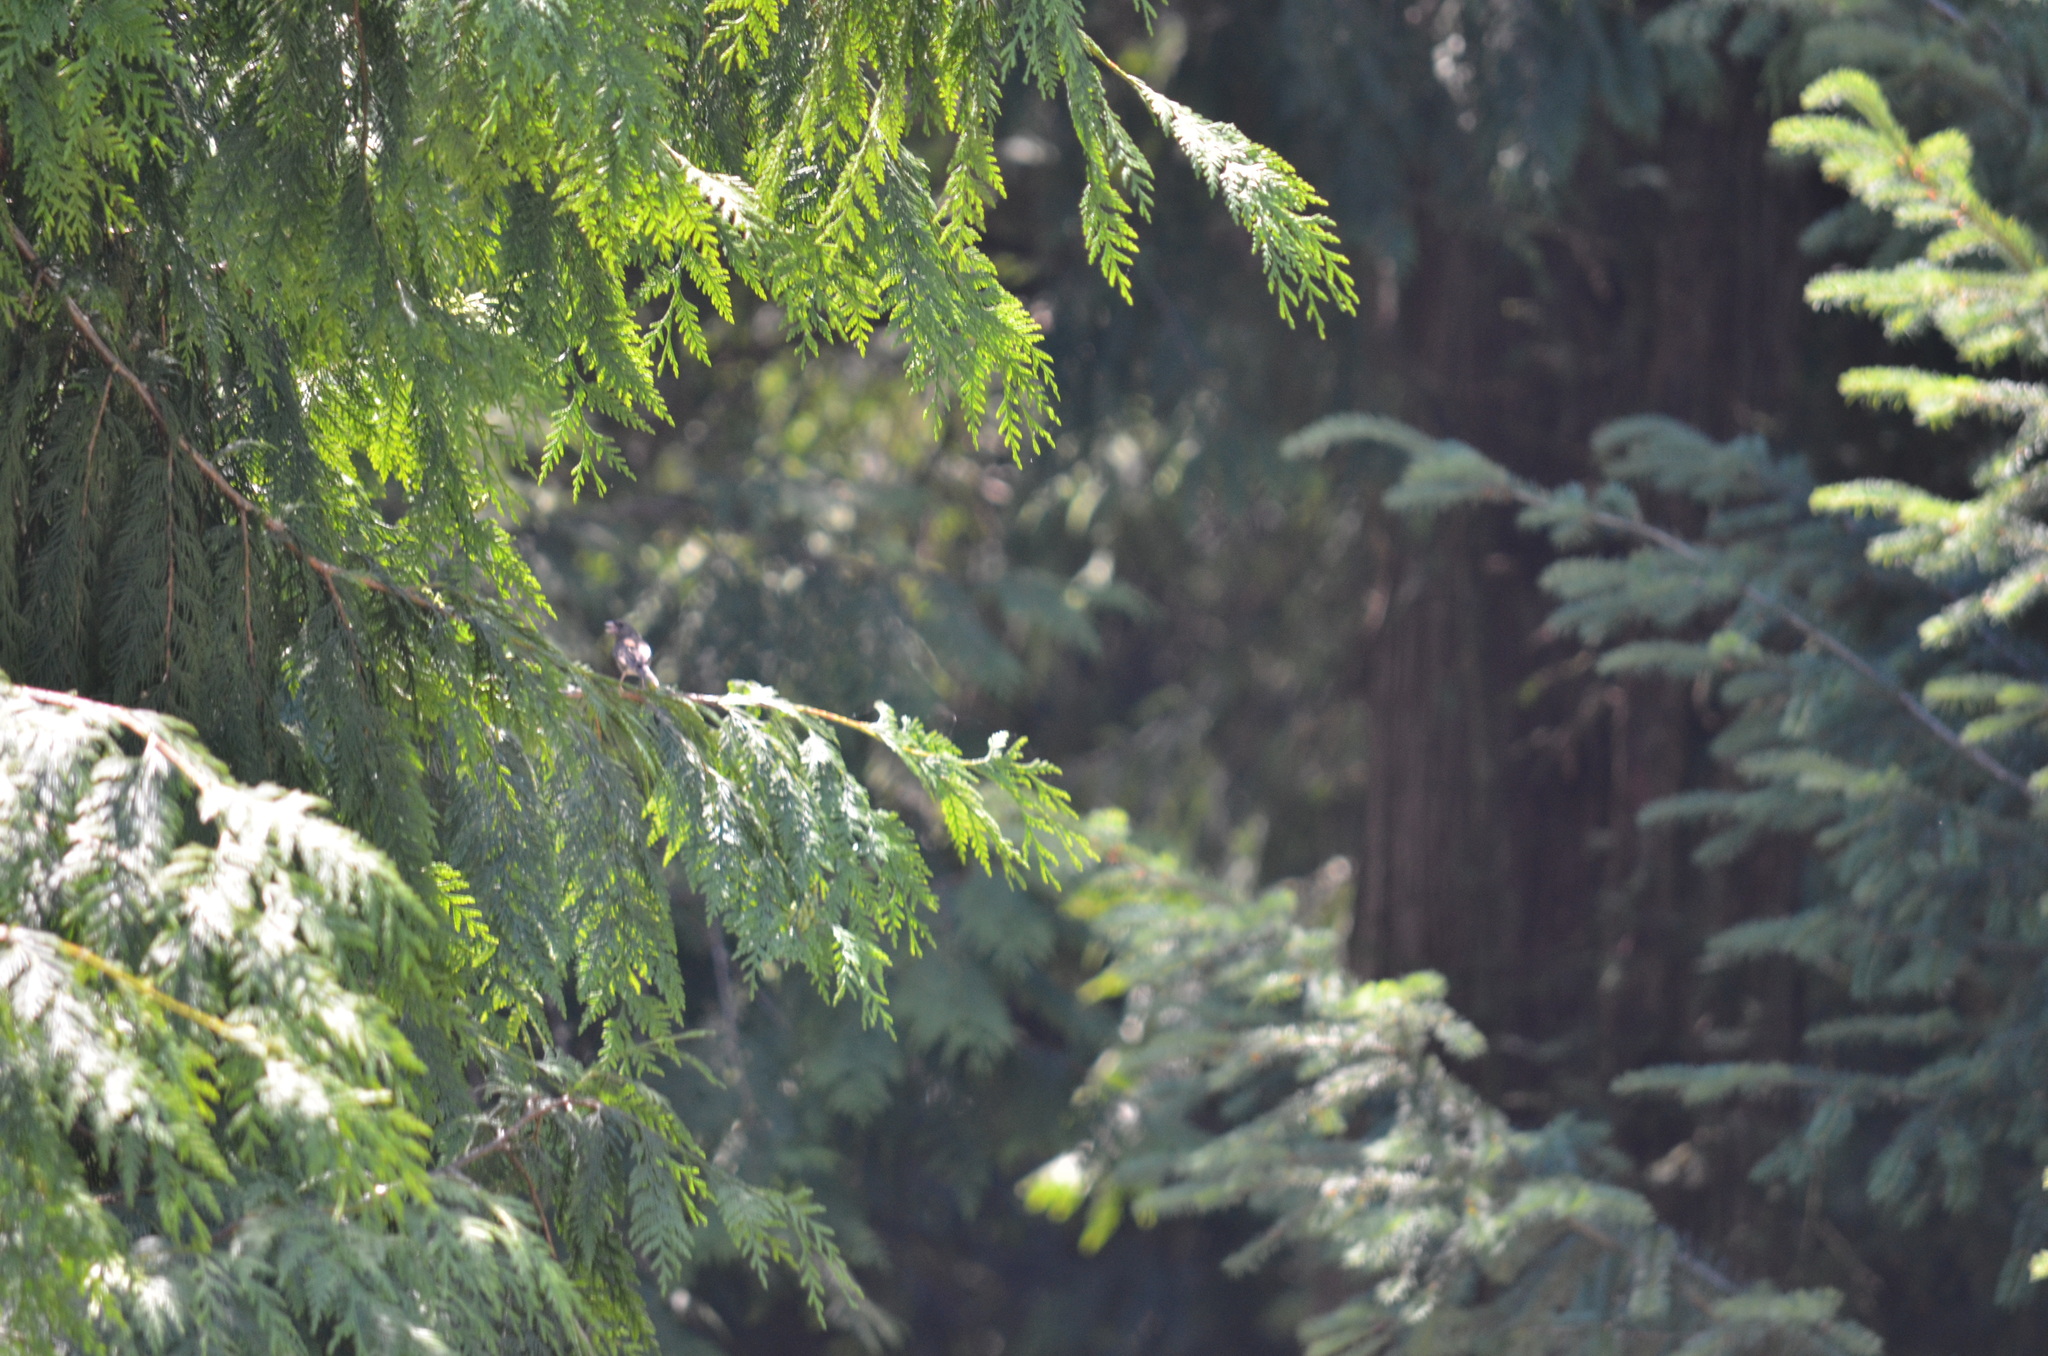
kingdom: Animalia
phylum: Chordata
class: Aves
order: Passeriformes
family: Passerellidae
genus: Junco
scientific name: Junco hyemalis
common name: Dark-eyed junco
